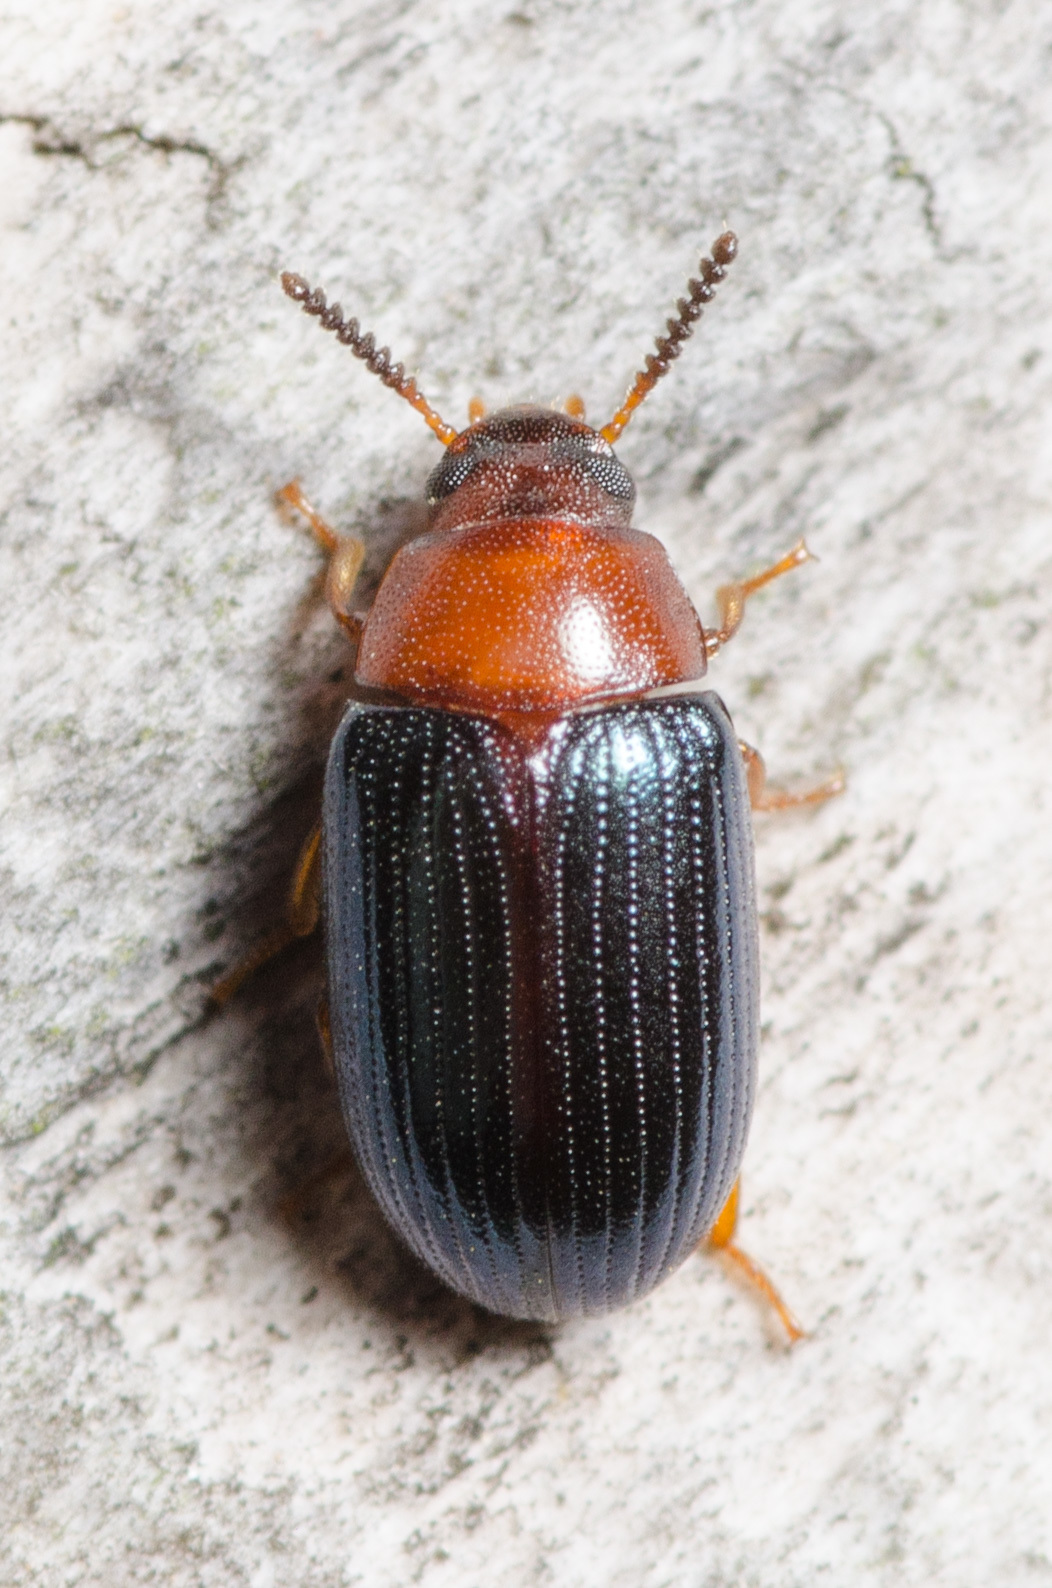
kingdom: Animalia
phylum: Arthropoda
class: Insecta
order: Coleoptera
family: Tenebrionidae
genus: Neomida
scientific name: Neomida bicornis
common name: Two-horned darkling beetle
